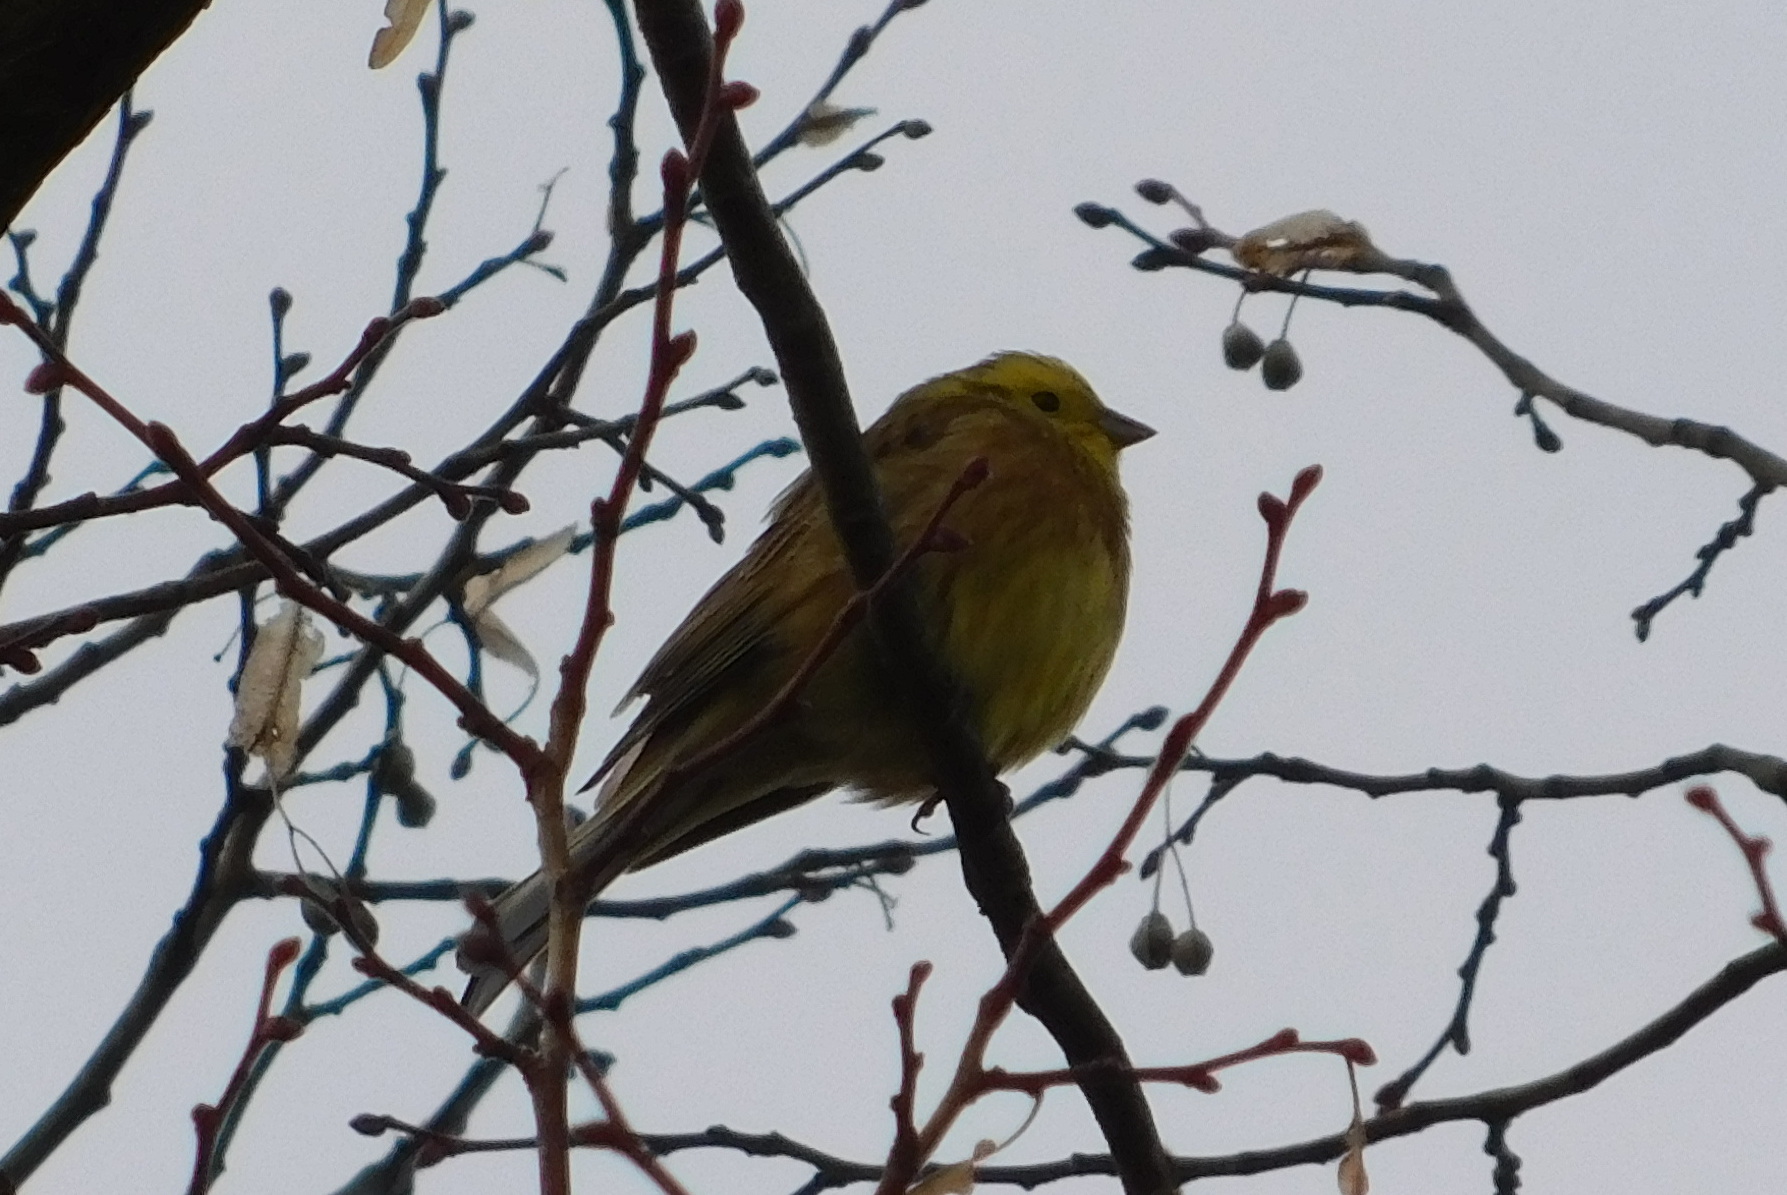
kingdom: Animalia
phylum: Chordata
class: Aves
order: Passeriformes
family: Emberizidae
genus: Emberiza
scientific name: Emberiza citrinella
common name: Yellowhammer
